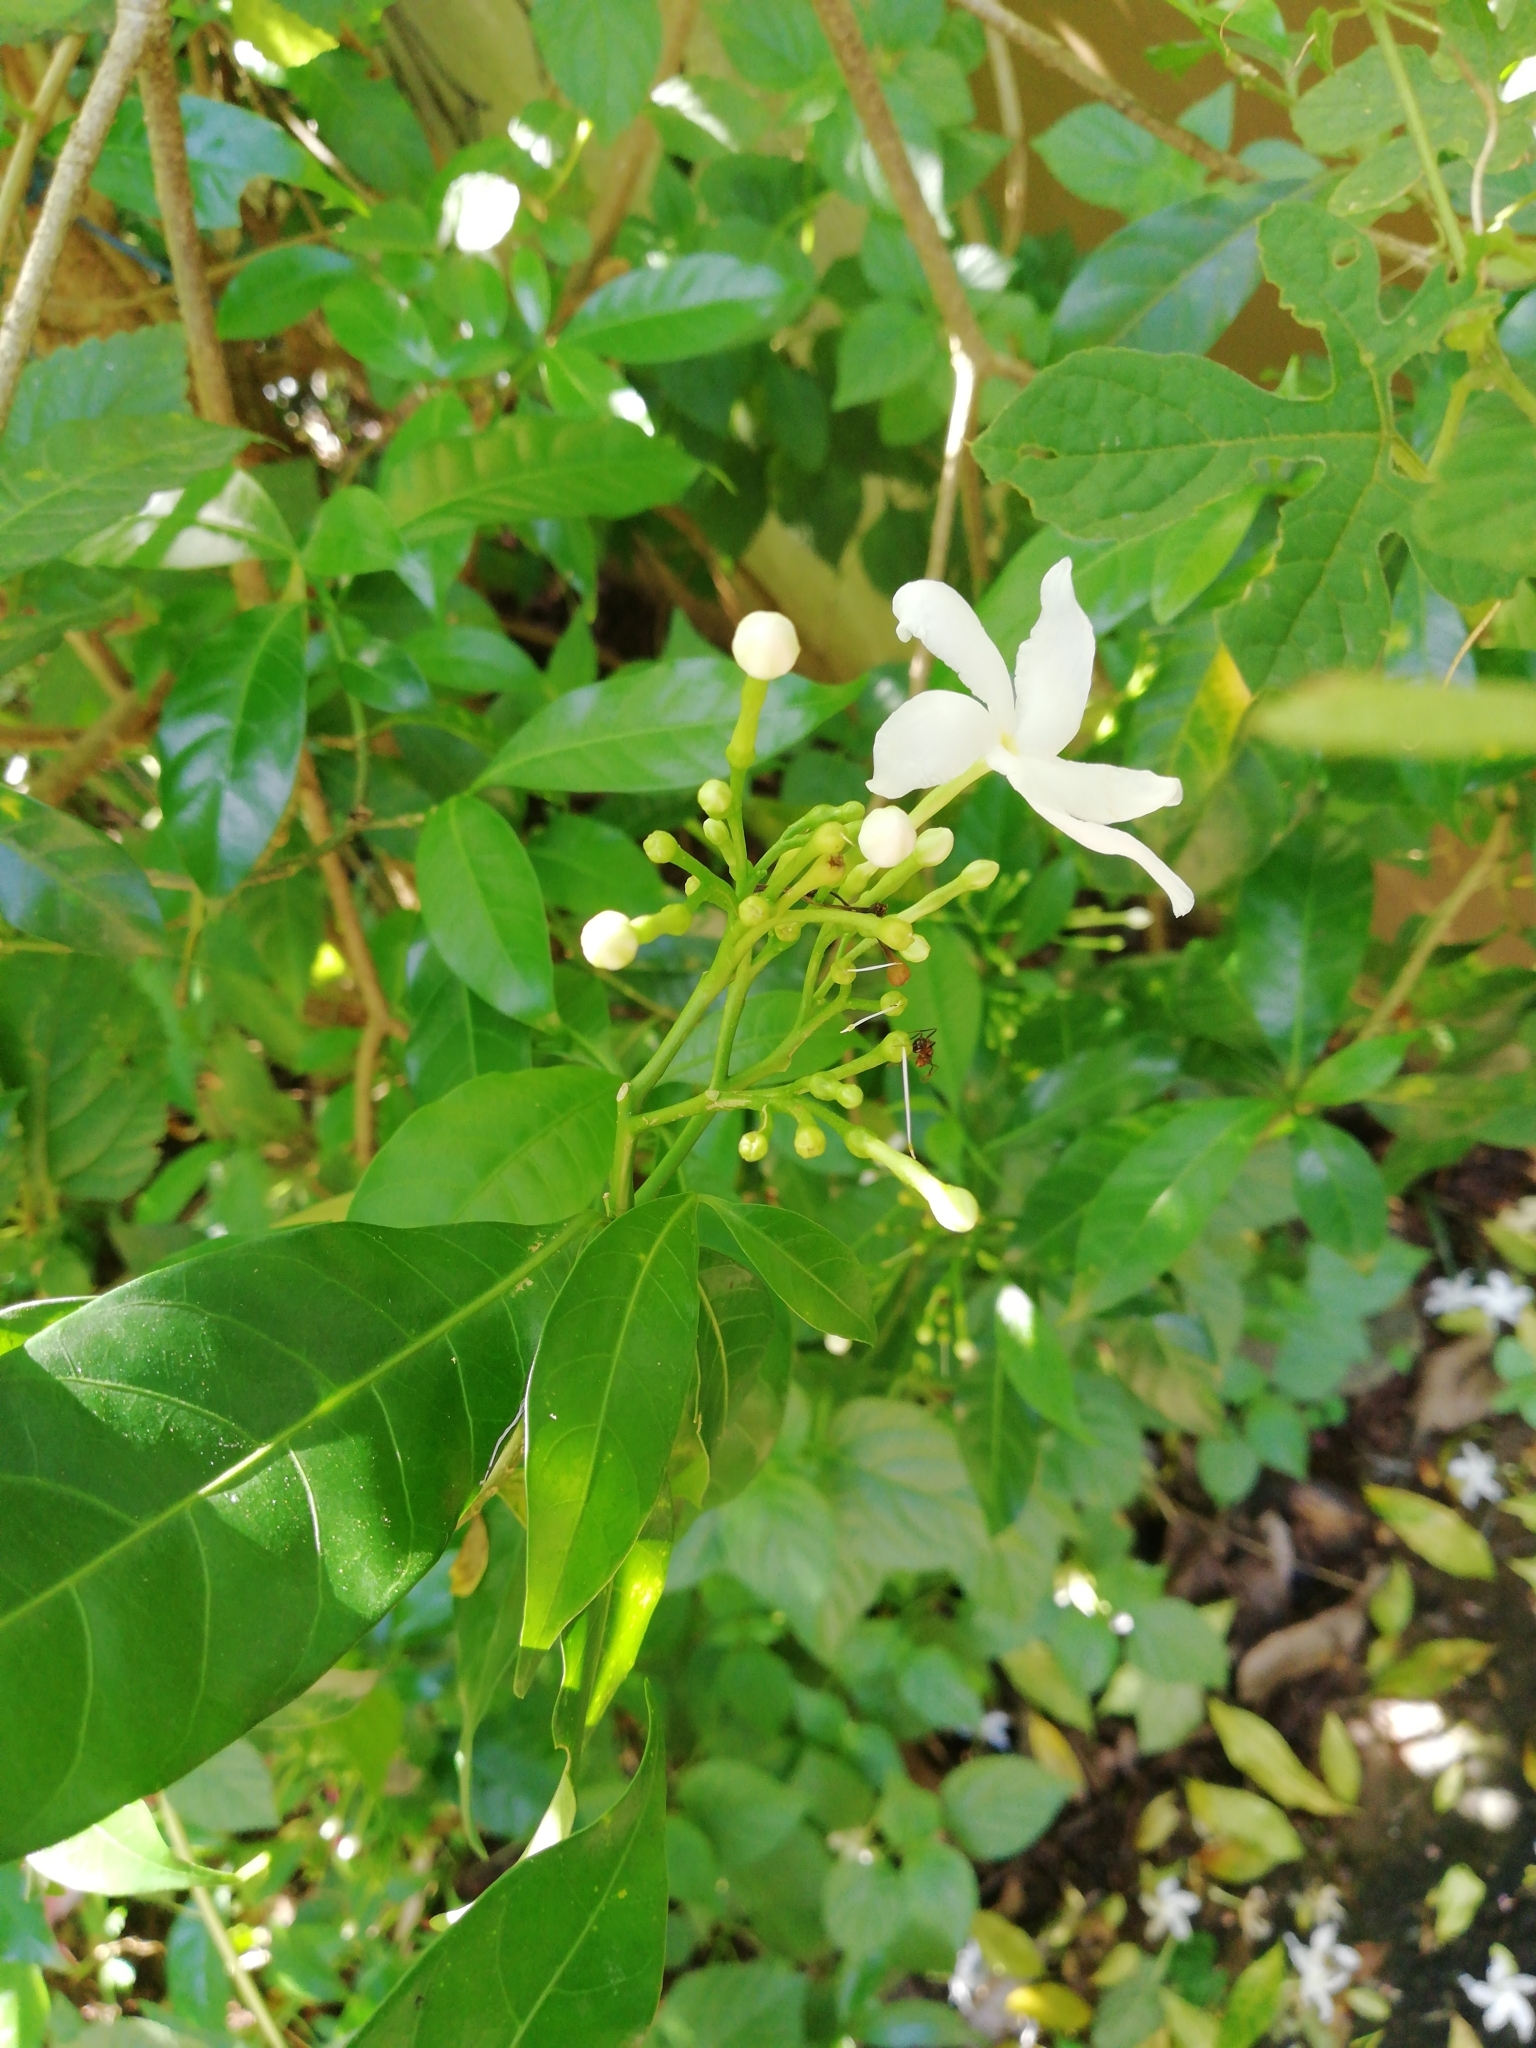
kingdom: Plantae
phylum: Tracheophyta
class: Magnoliopsida
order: Gentianales
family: Apocynaceae
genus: Tabernaemontana
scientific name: Tabernaemontana divaricata
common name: Pinwheelflower
